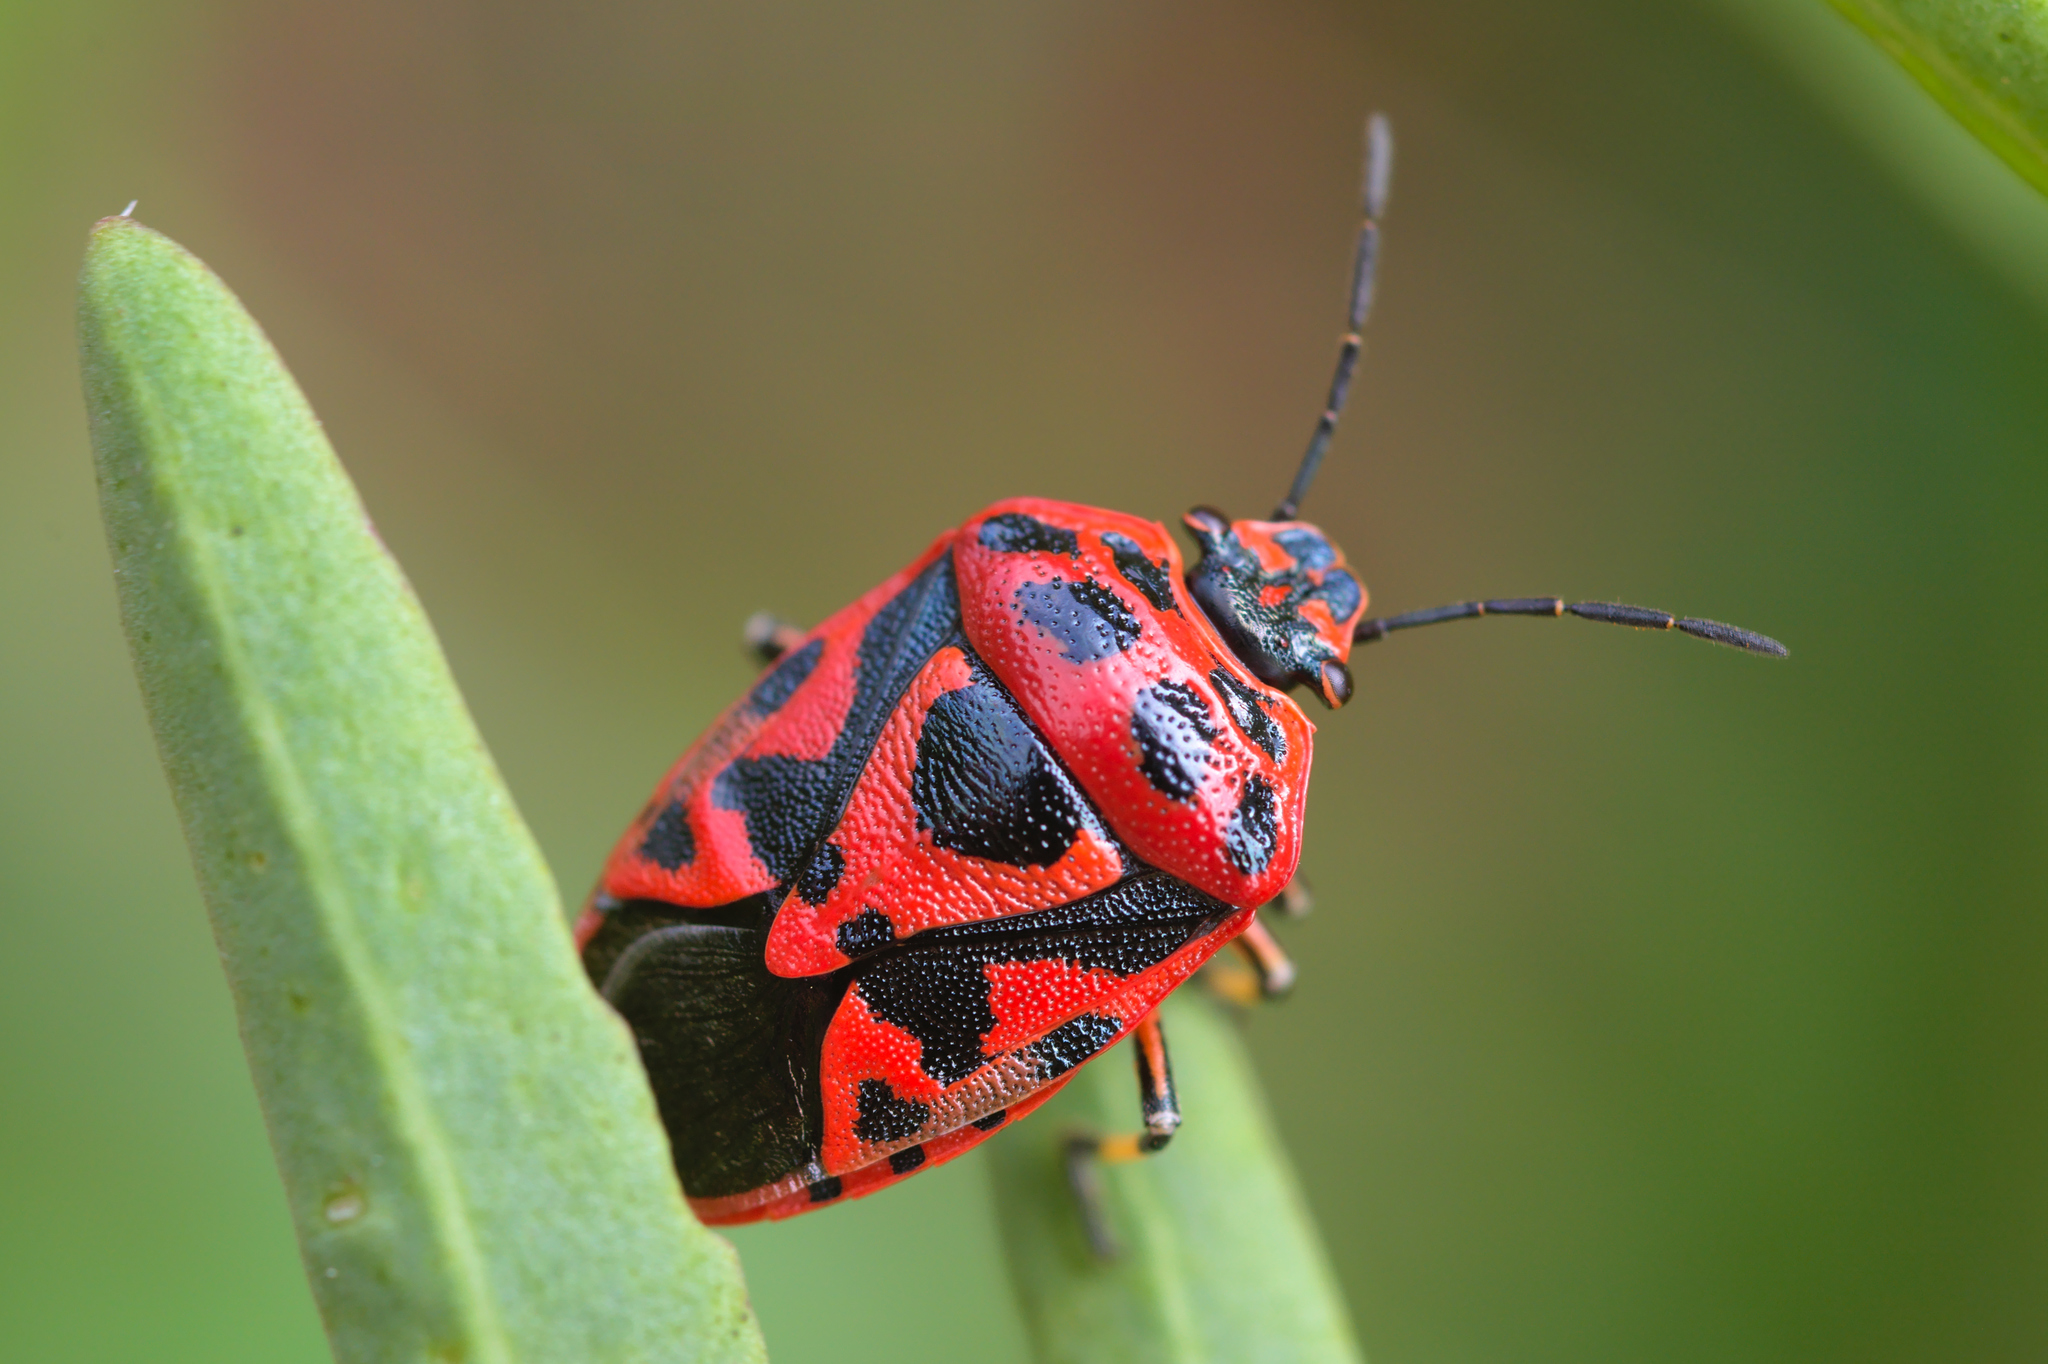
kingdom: Animalia
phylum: Arthropoda
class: Insecta
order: Hemiptera
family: Pentatomidae
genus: Eurydema
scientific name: Eurydema ornata
